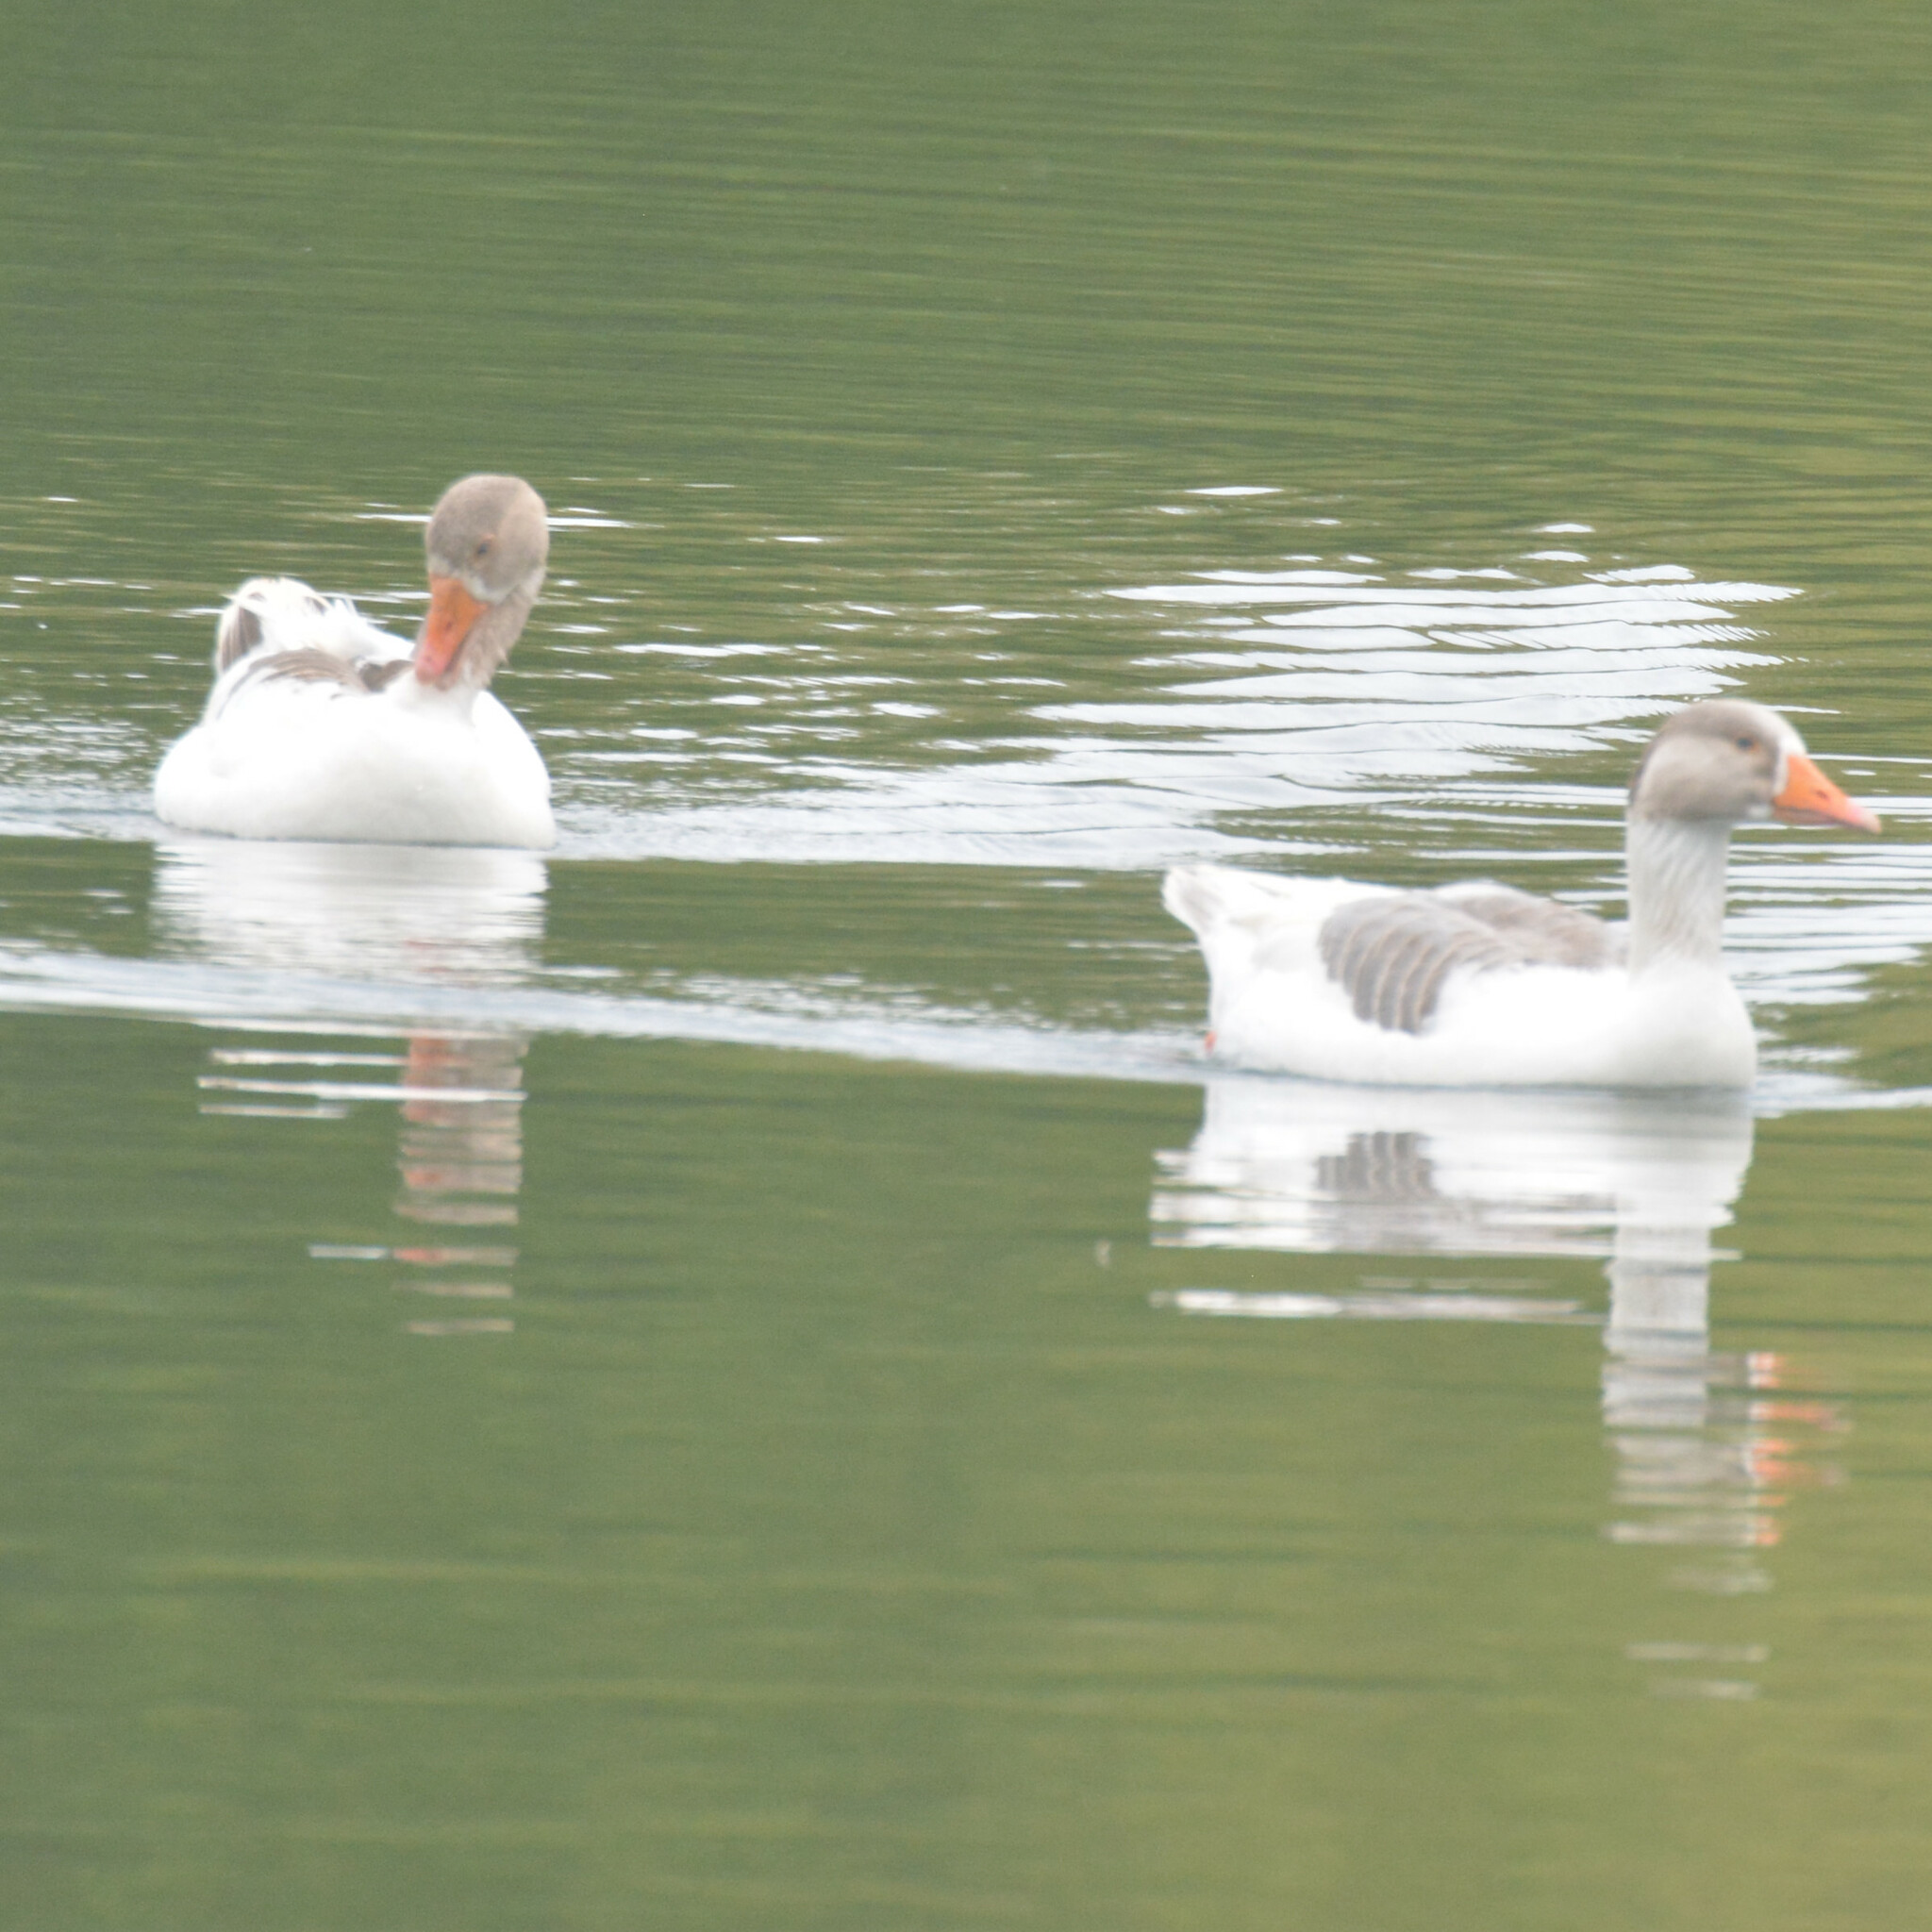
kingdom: Animalia
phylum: Chordata
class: Aves
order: Anseriformes
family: Anatidae
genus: Anser
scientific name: Anser anser
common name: Greylag goose
